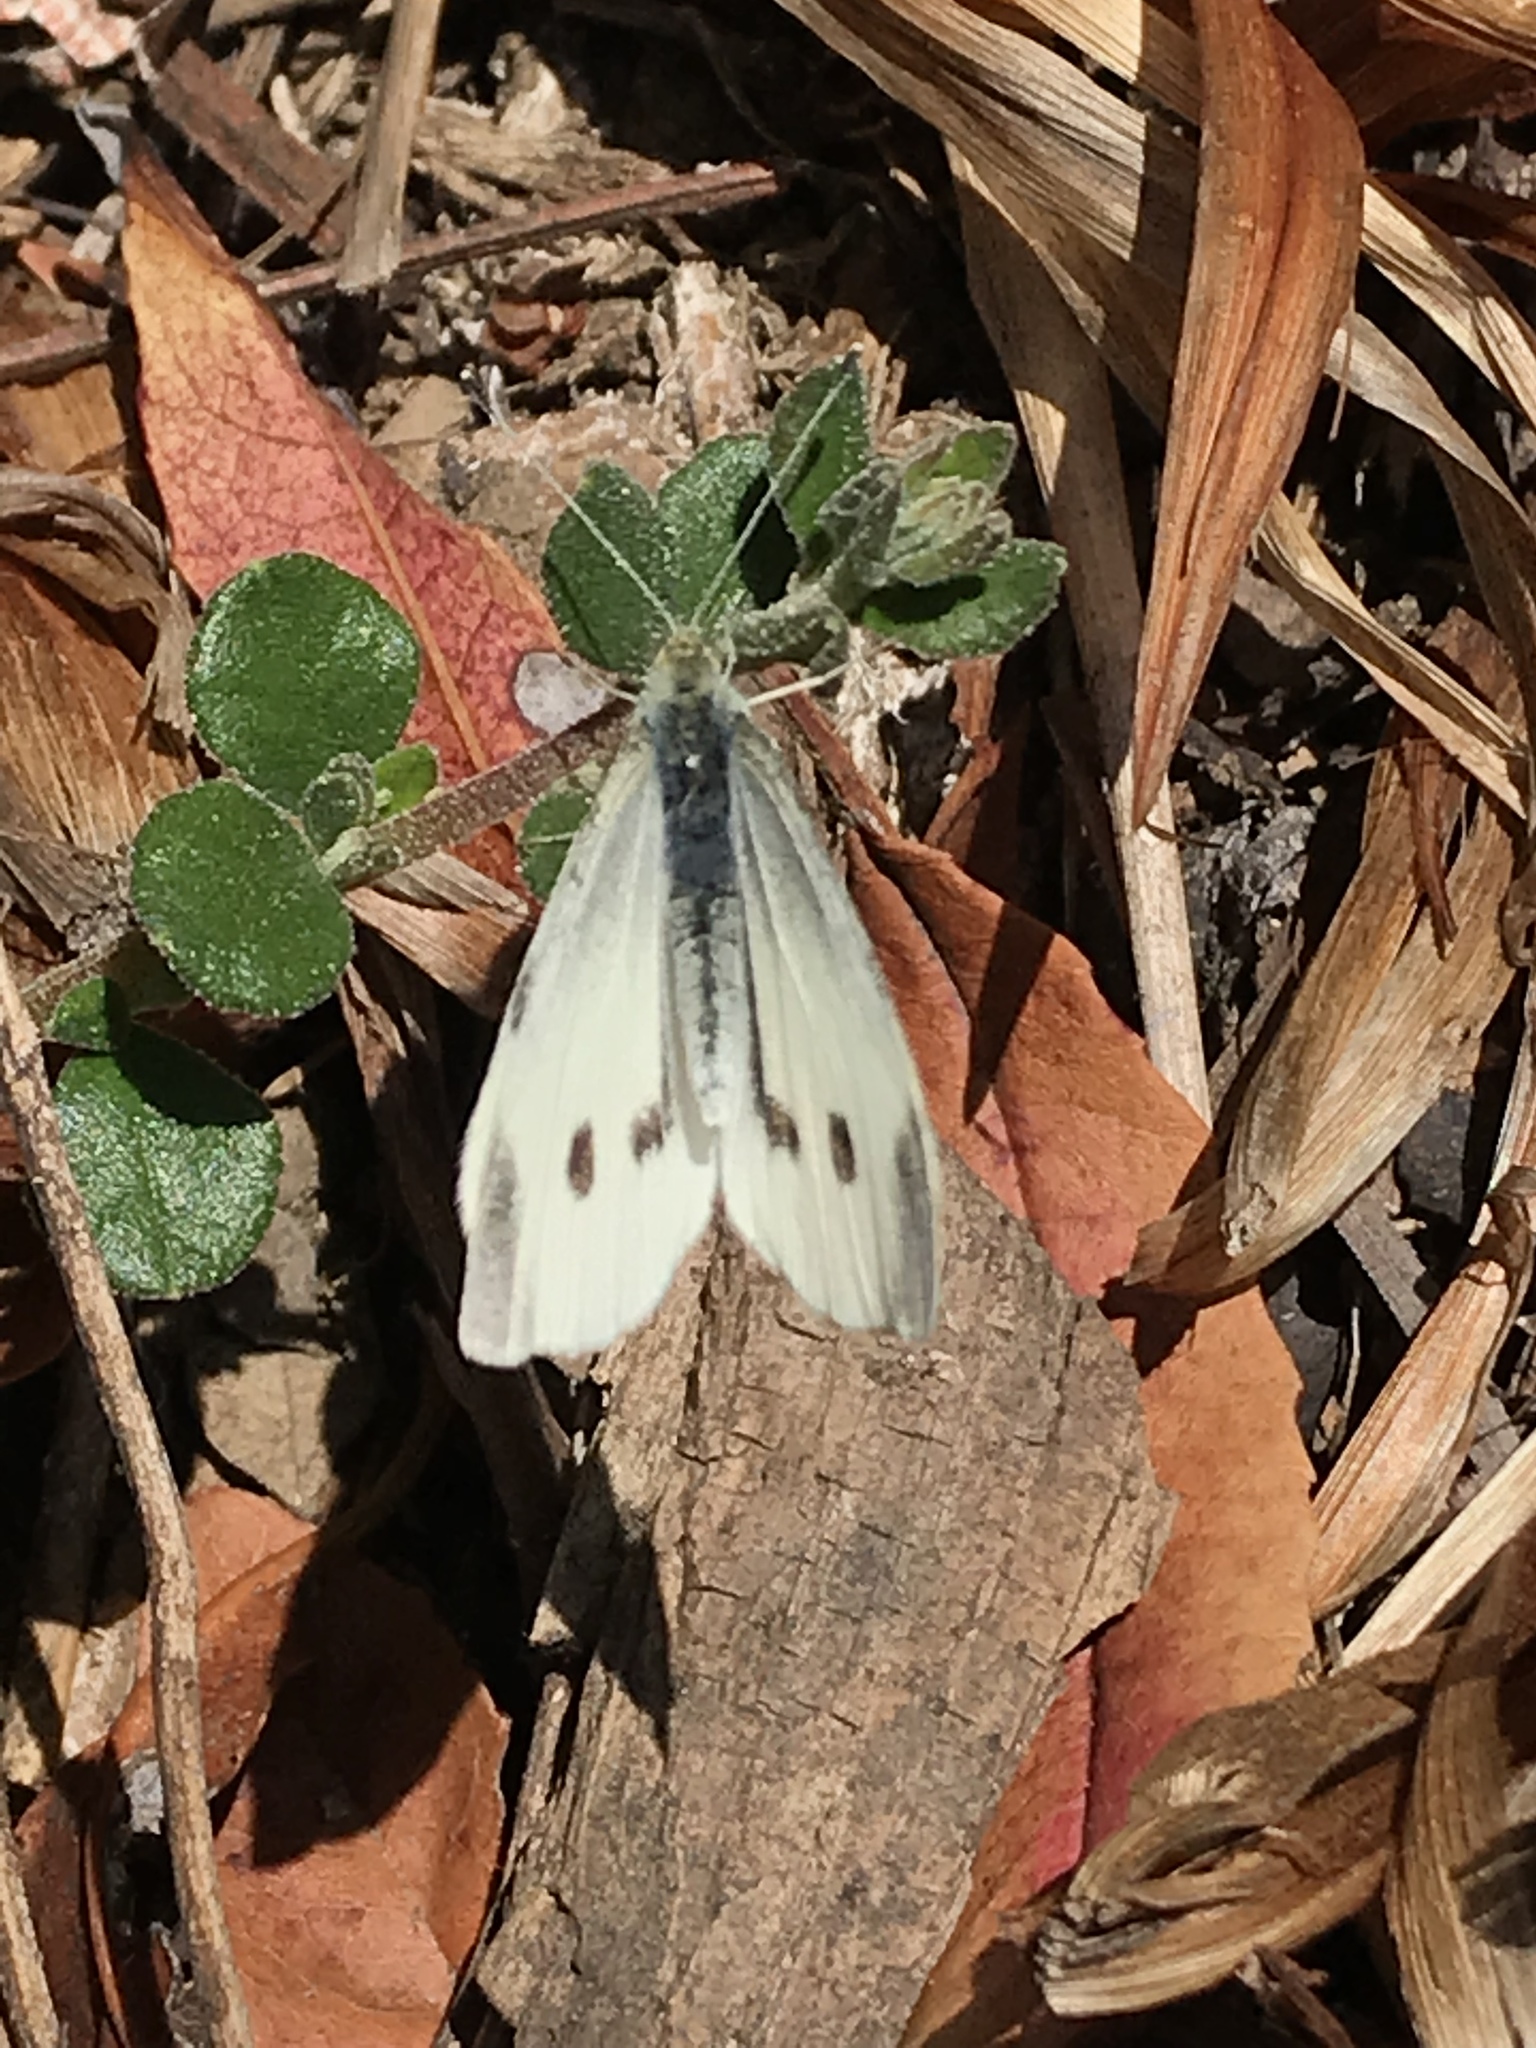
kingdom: Animalia
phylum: Arthropoda
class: Insecta
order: Lepidoptera
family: Pieridae
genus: Pieris
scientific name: Pieris rapae
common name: Small white
